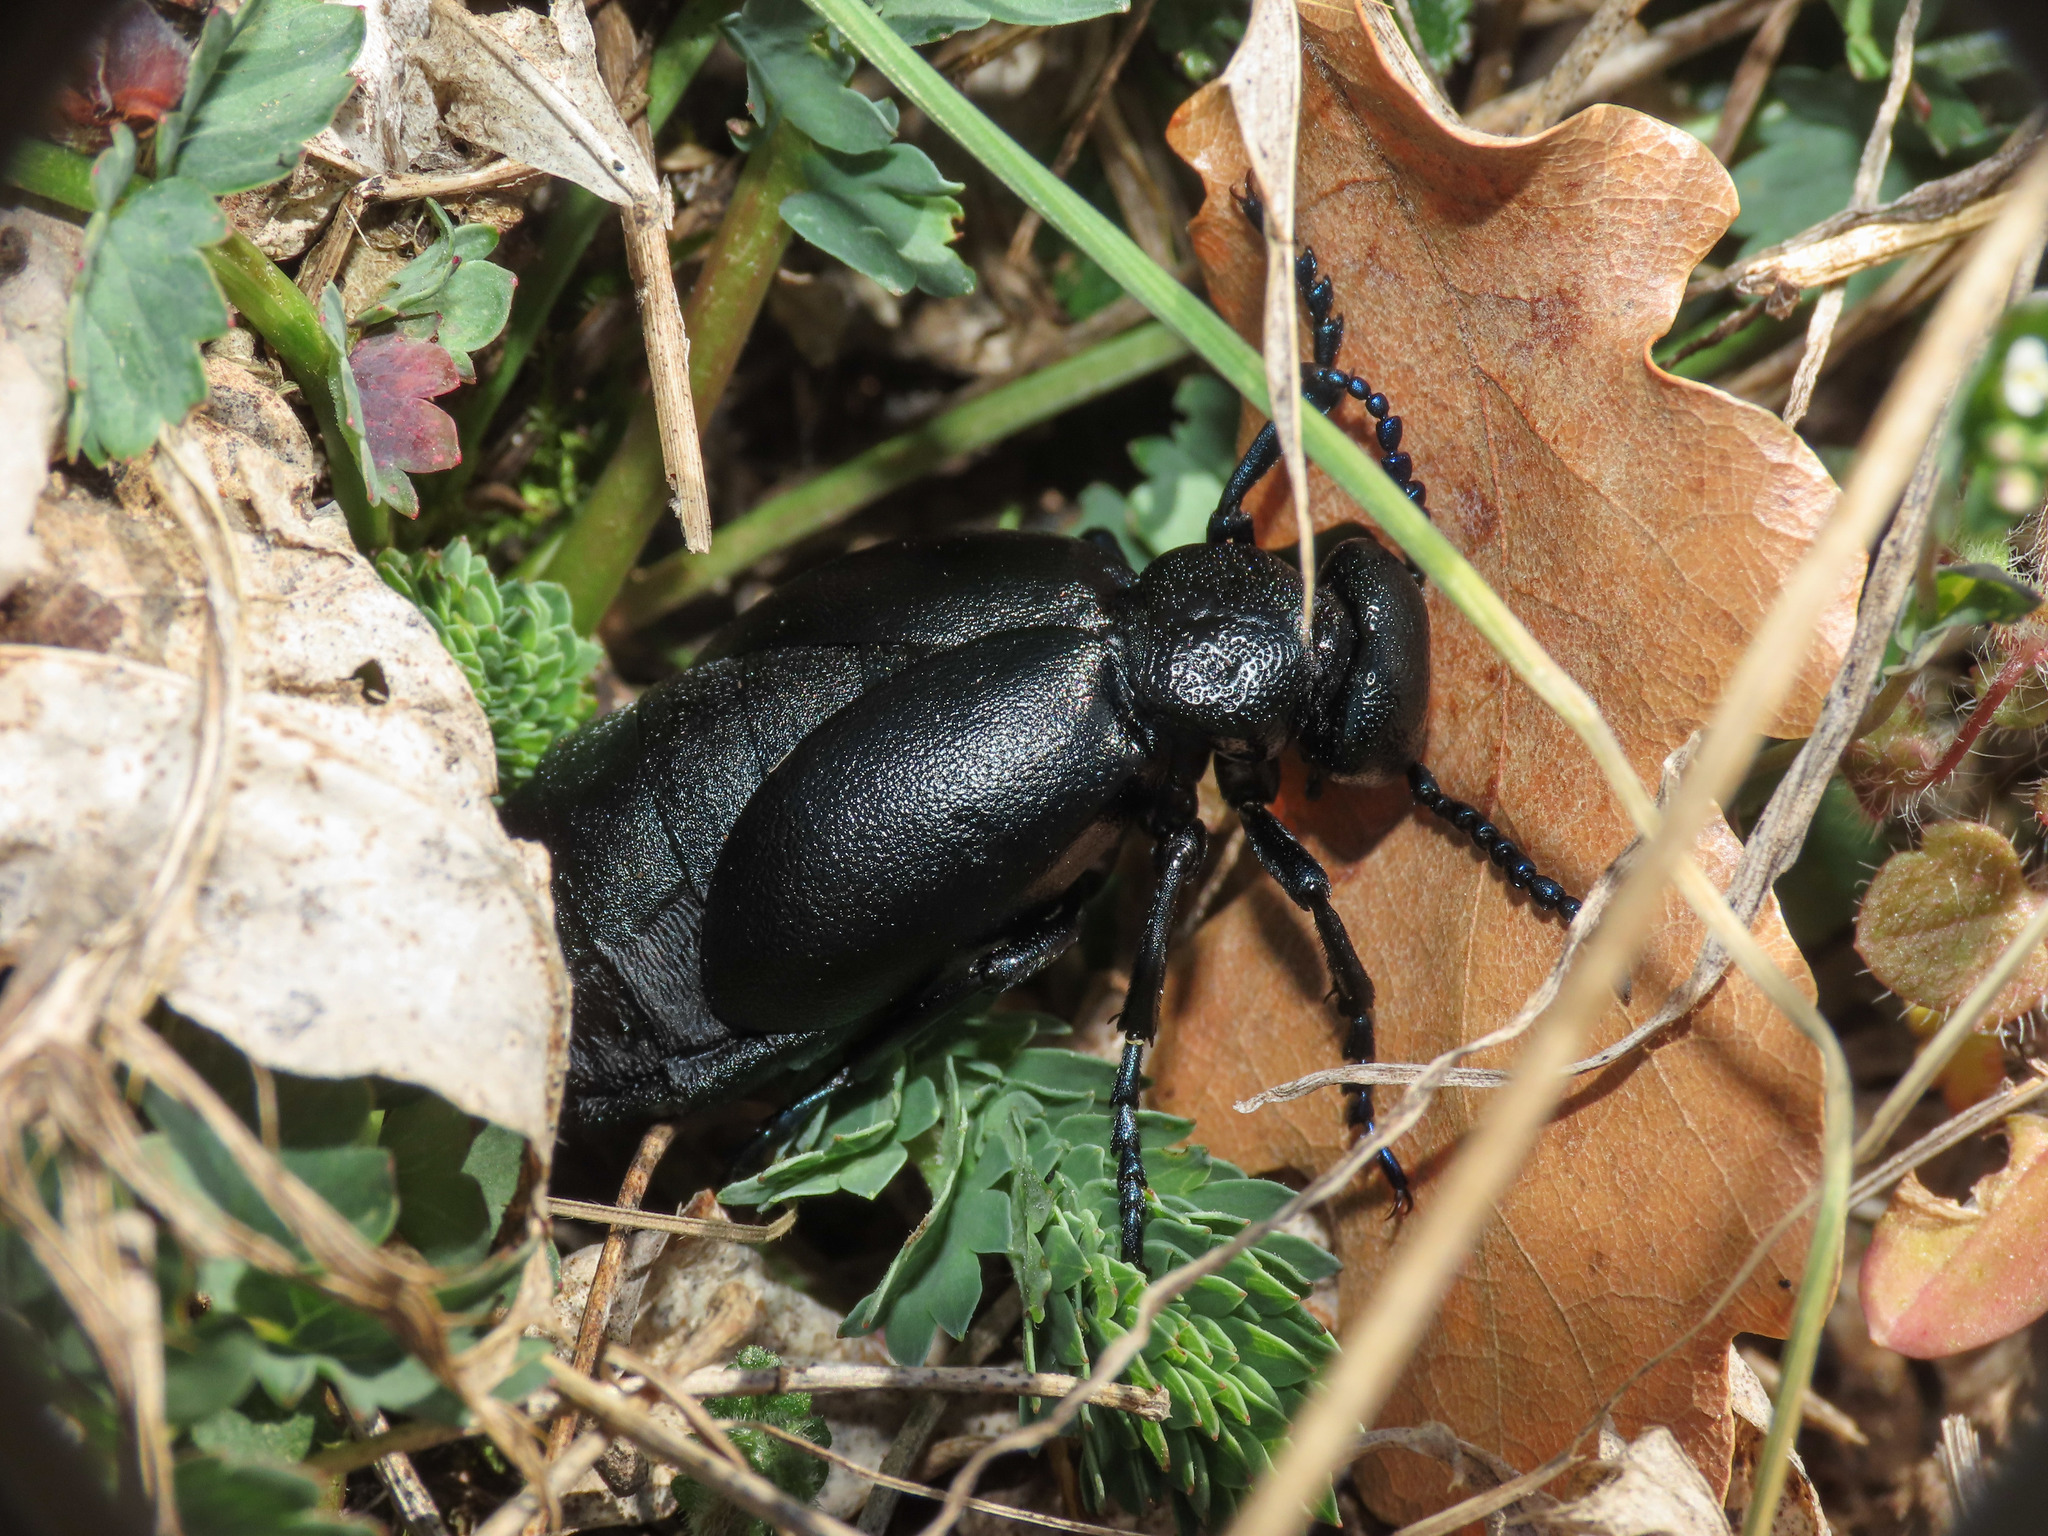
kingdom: Animalia
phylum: Arthropoda
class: Insecta
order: Coleoptera
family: Meloidae
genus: Meloe
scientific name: Meloe proscarabaeus
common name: Black oil-beetle
